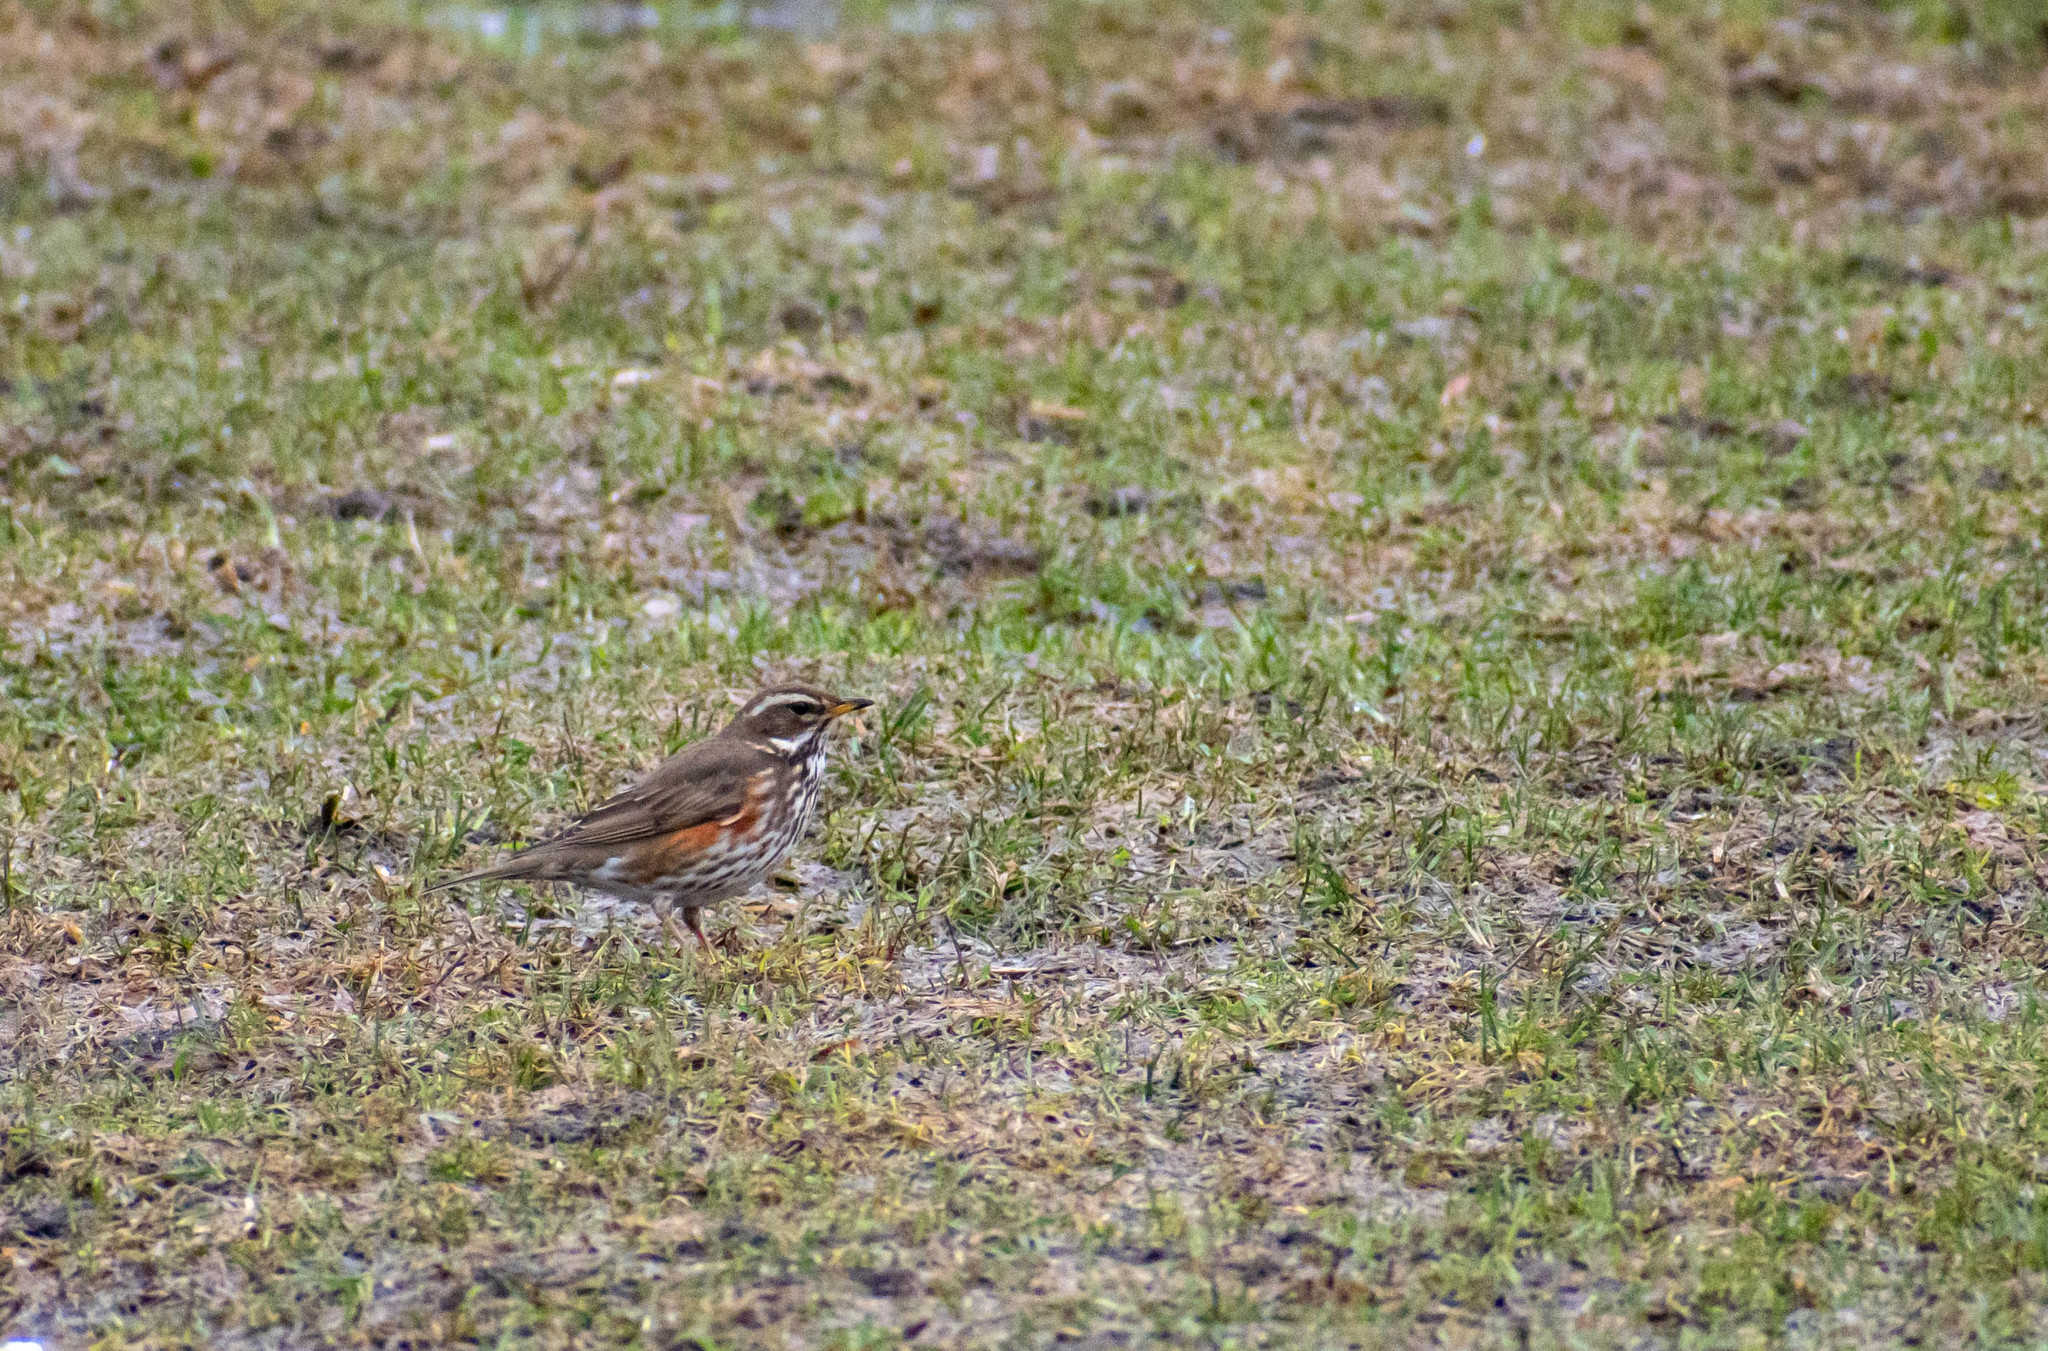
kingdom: Animalia
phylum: Chordata
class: Aves
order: Passeriformes
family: Turdidae
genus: Turdus
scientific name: Turdus iliacus
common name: Redwing
